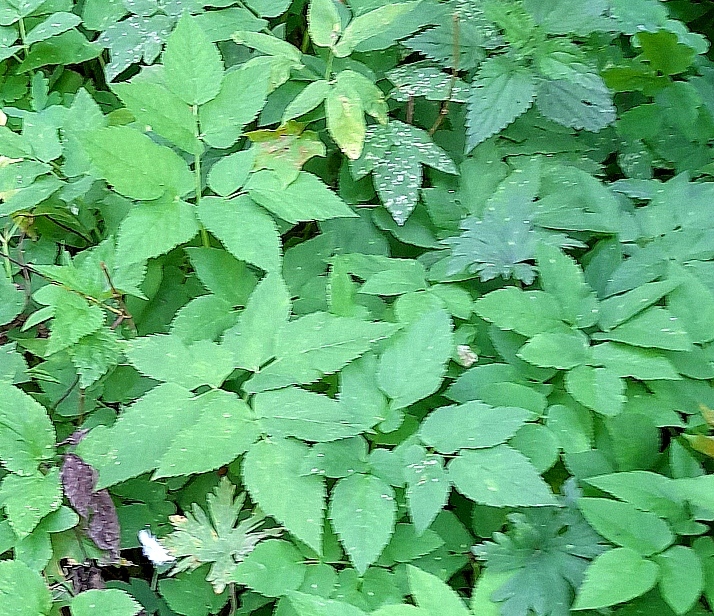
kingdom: Plantae
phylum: Tracheophyta
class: Magnoliopsida
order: Apiales
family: Apiaceae
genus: Aegopodium
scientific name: Aegopodium podagraria
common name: Ground-elder
